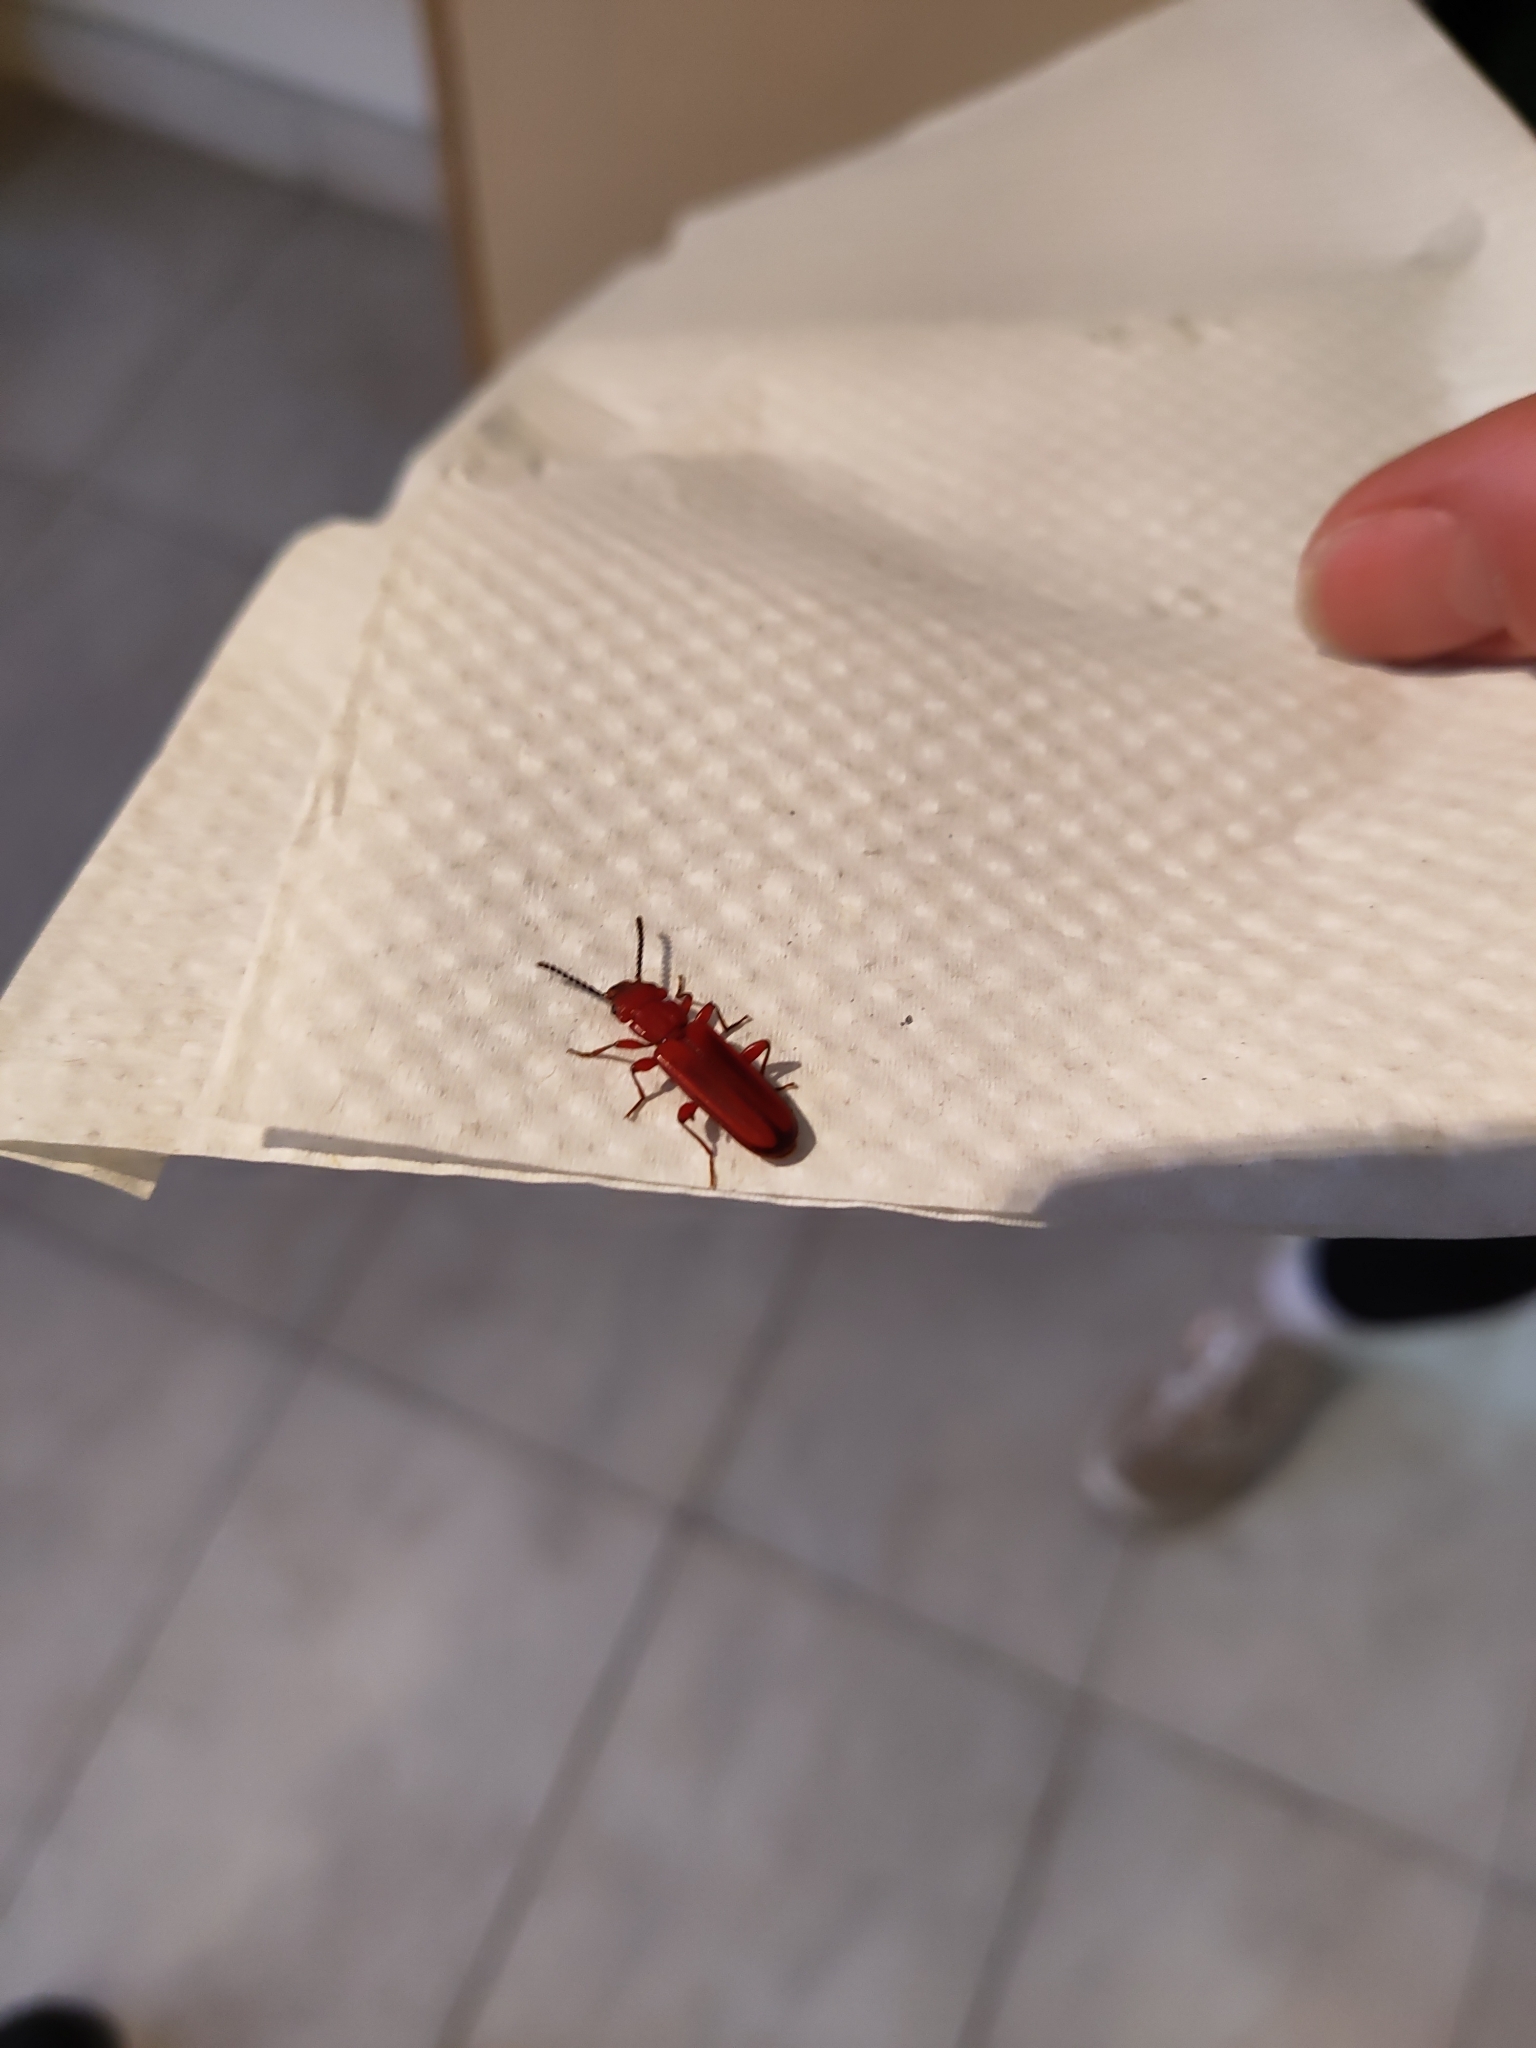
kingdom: Animalia
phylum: Arthropoda
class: Insecta
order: Coleoptera
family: Cucujidae
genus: Cucujus
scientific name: Cucujus clavipes
